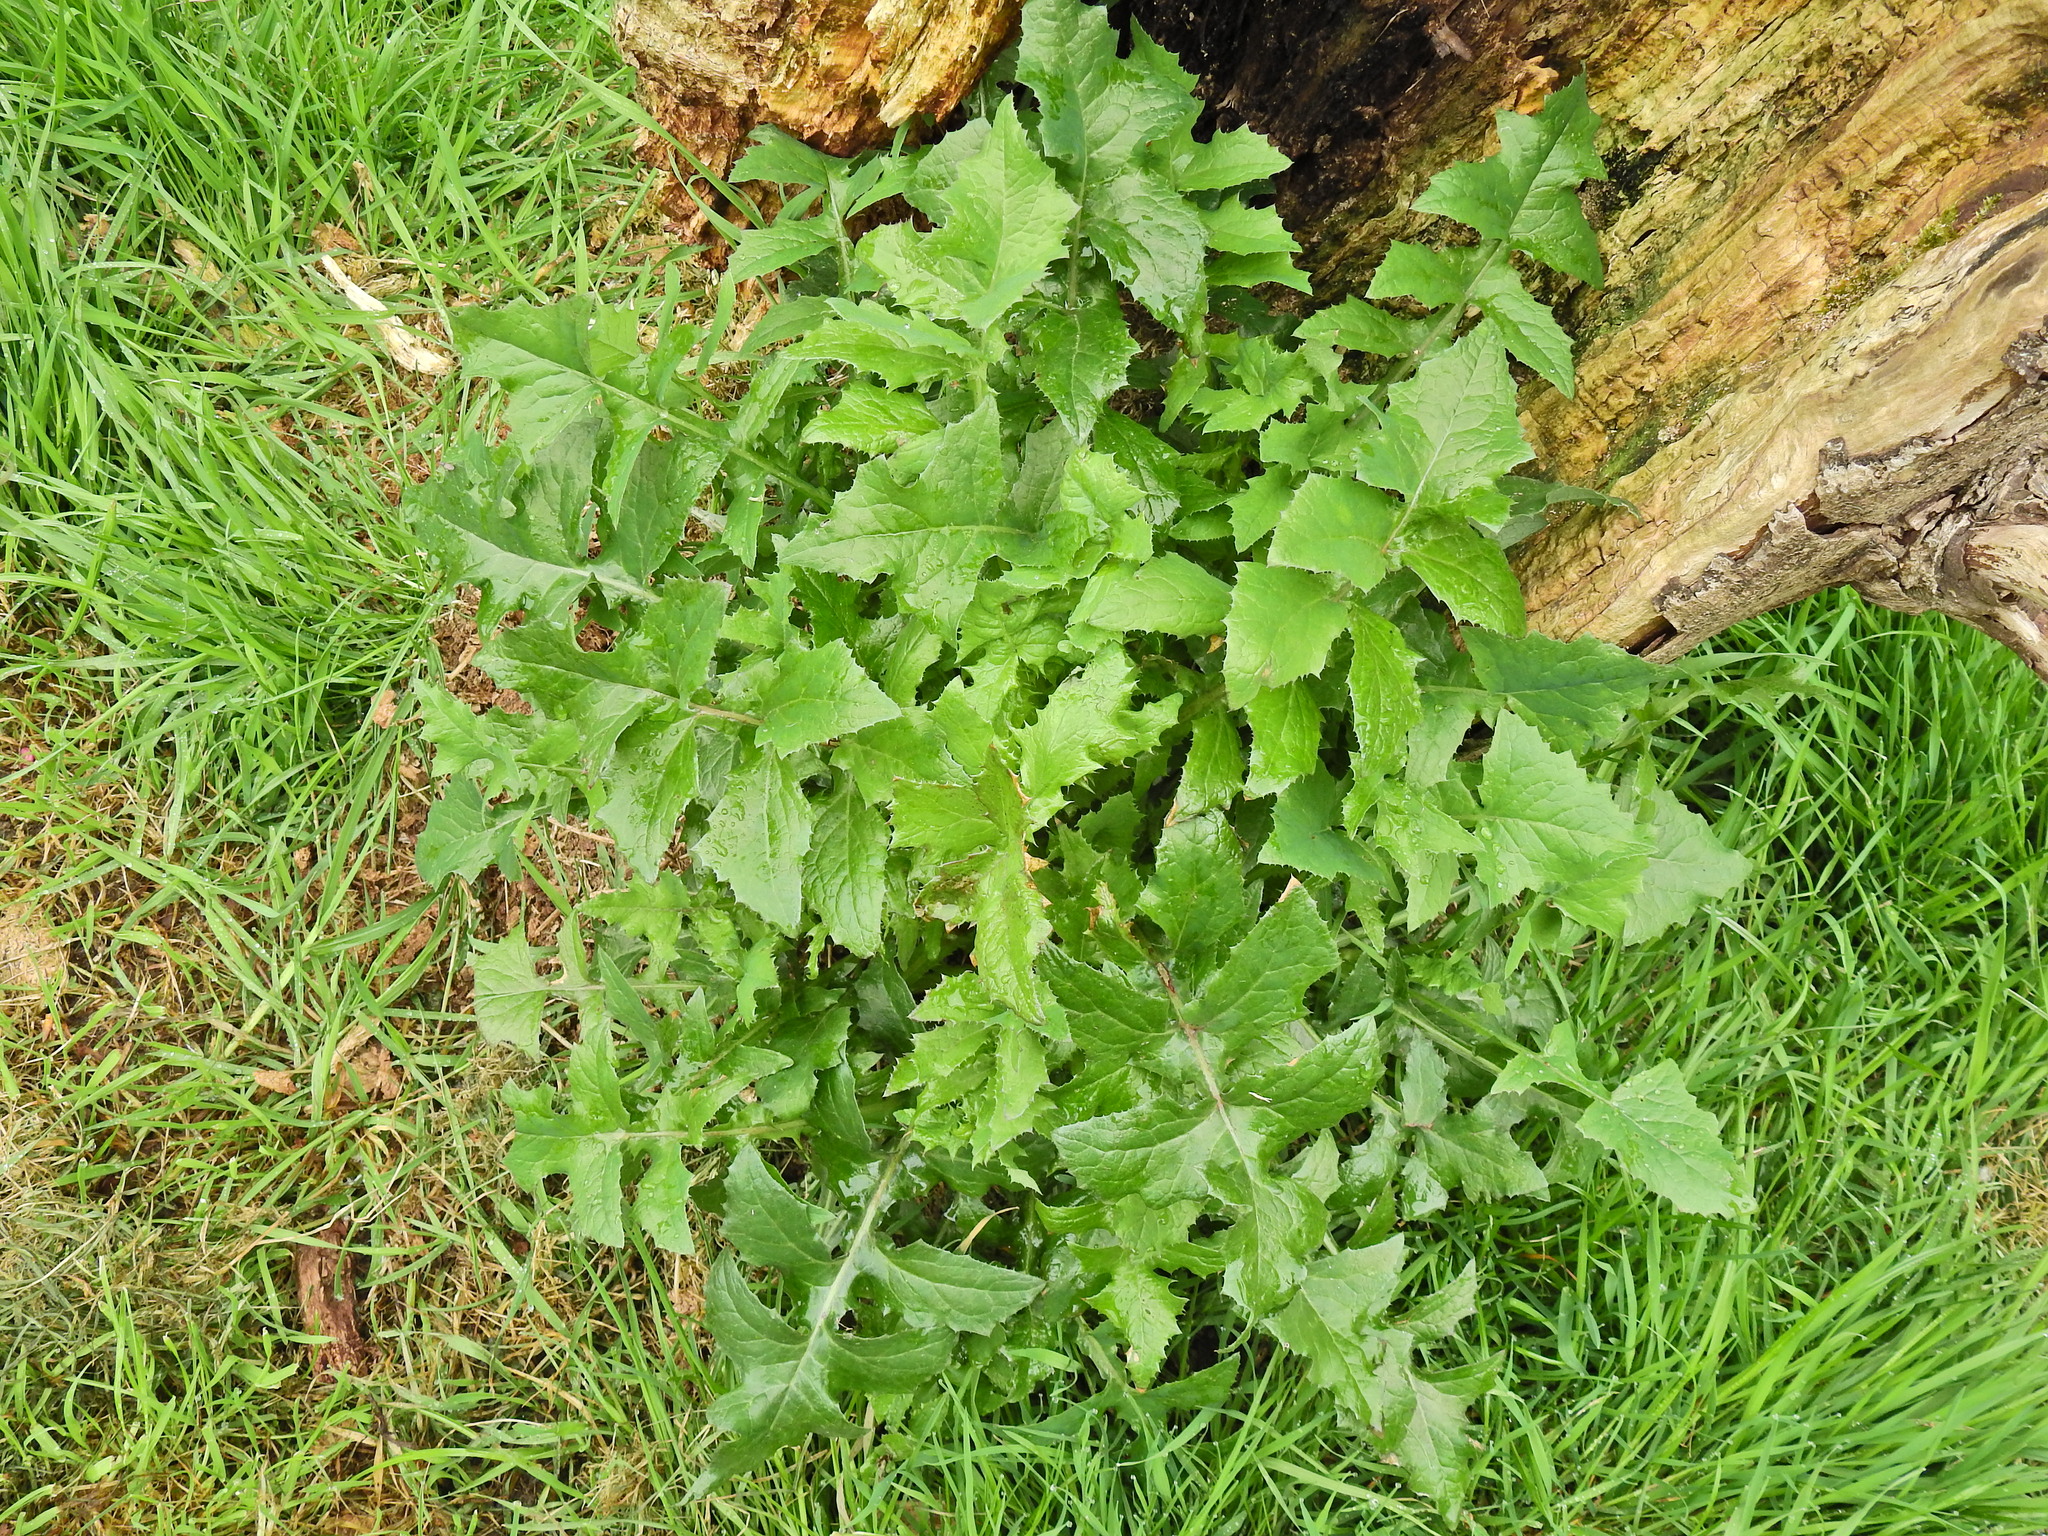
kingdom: Plantae
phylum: Tracheophyta
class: Magnoliopsida
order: Asterales
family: Asteraceae
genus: Sonchus
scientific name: Sonchus oleraceus
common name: Common sowthistle
